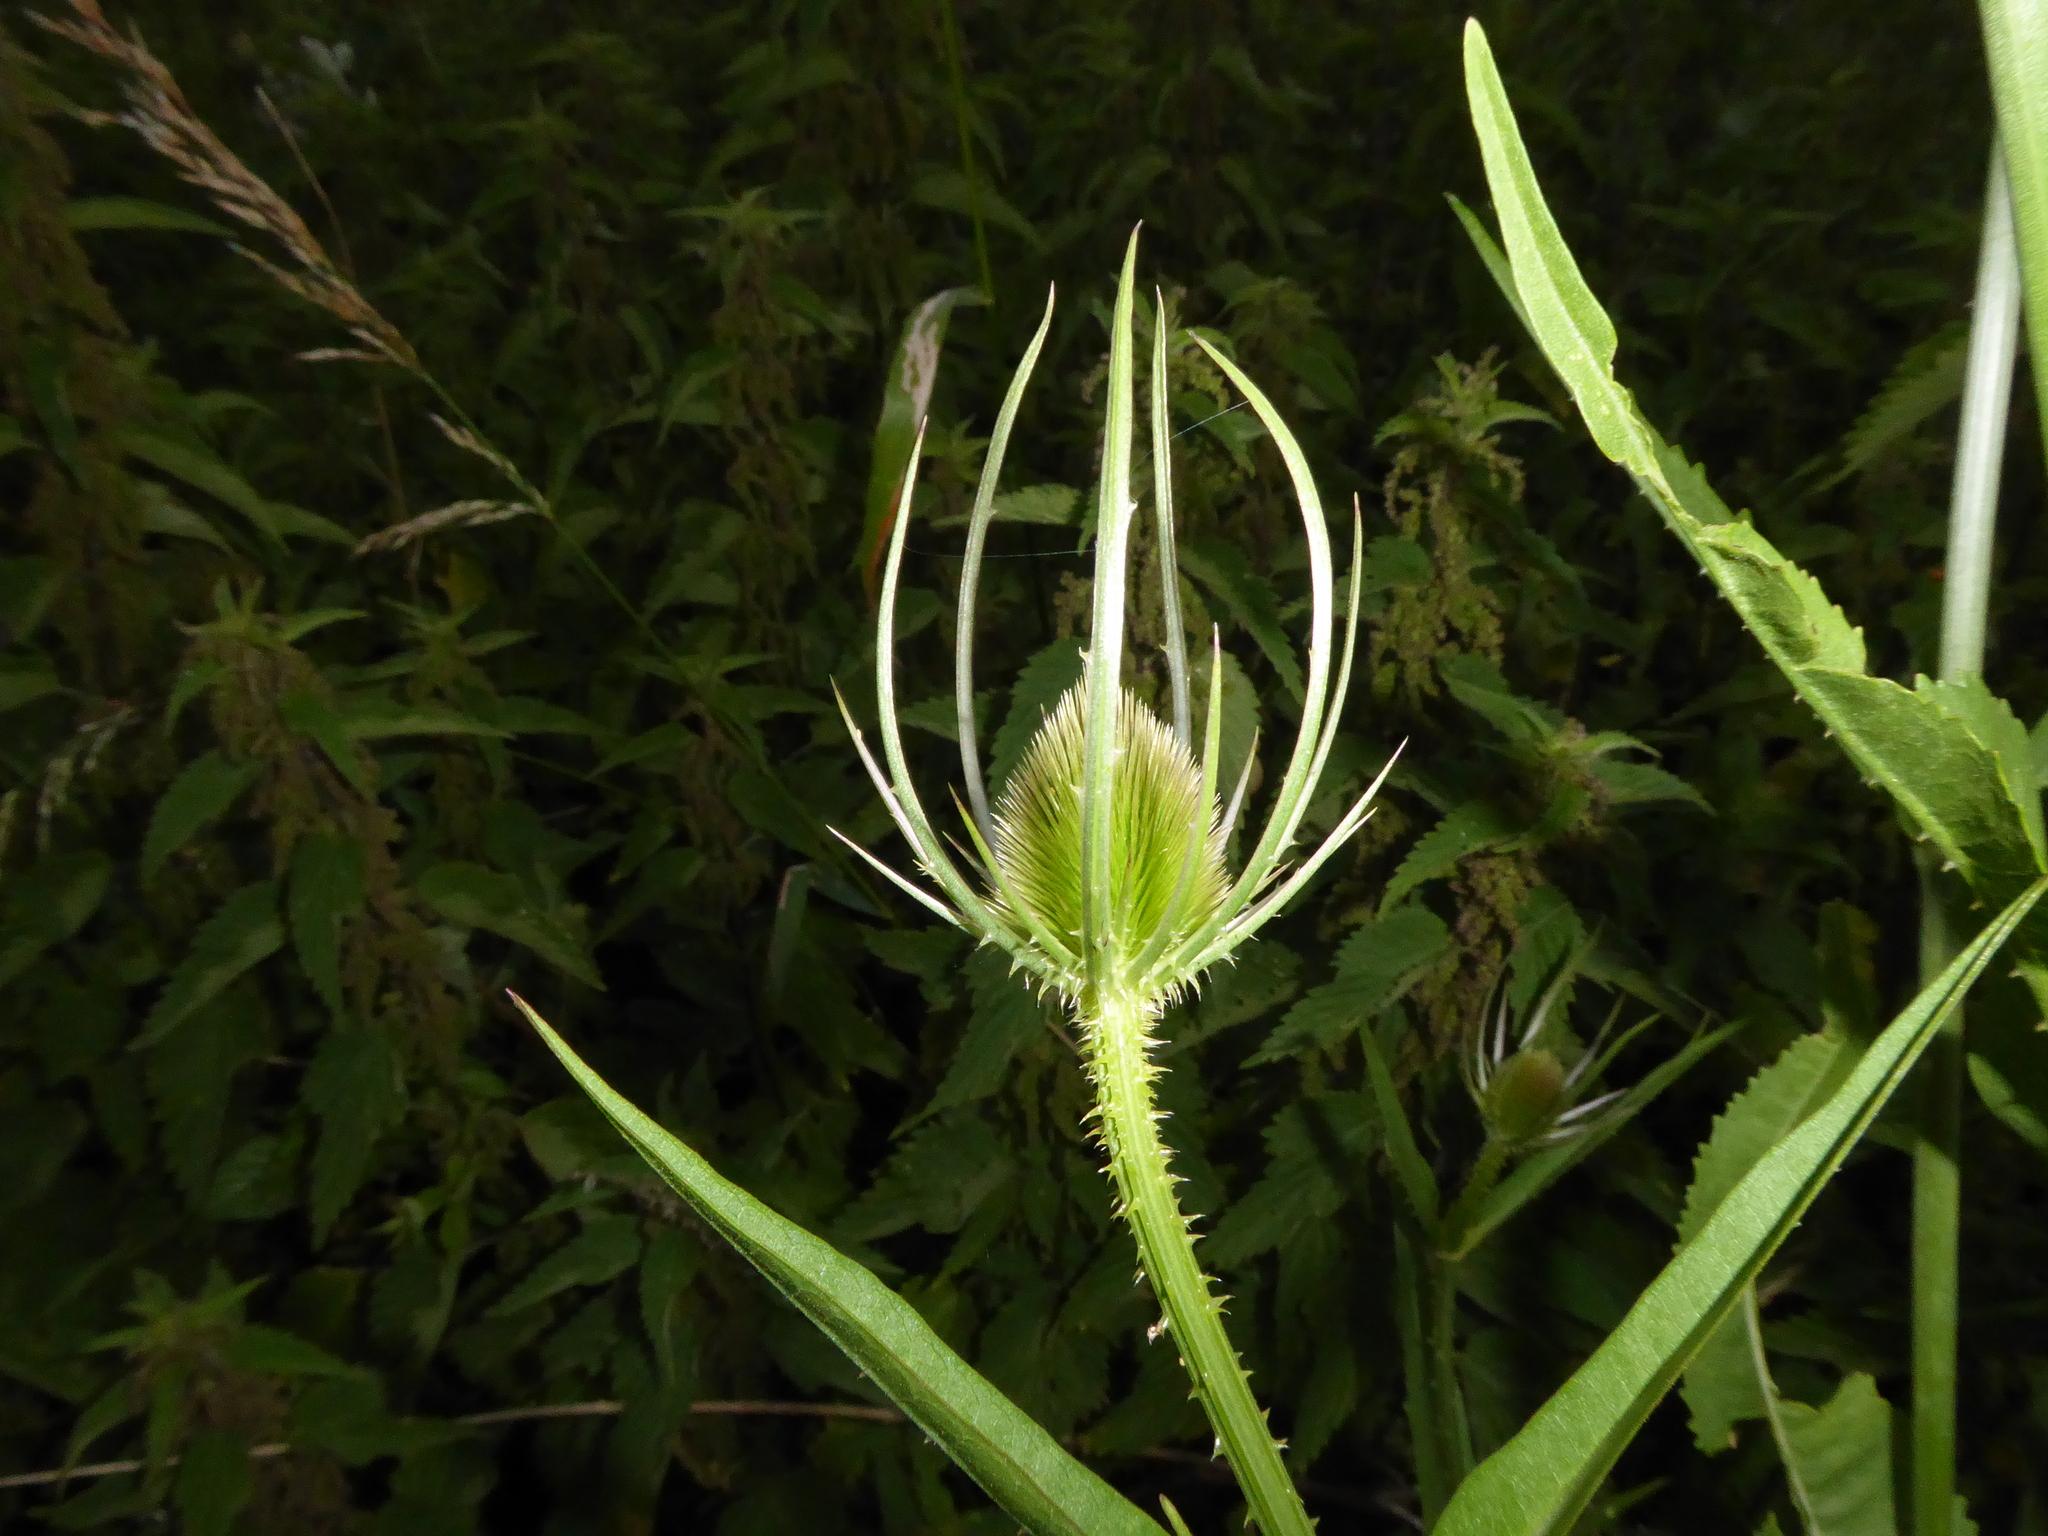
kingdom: Plantae
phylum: Tracheophyta
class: Magnoliopsida
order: Dipsacales
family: Caprifoliaceae
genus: Dipsacus
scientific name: Dipsacus fullonum
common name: Teasel
